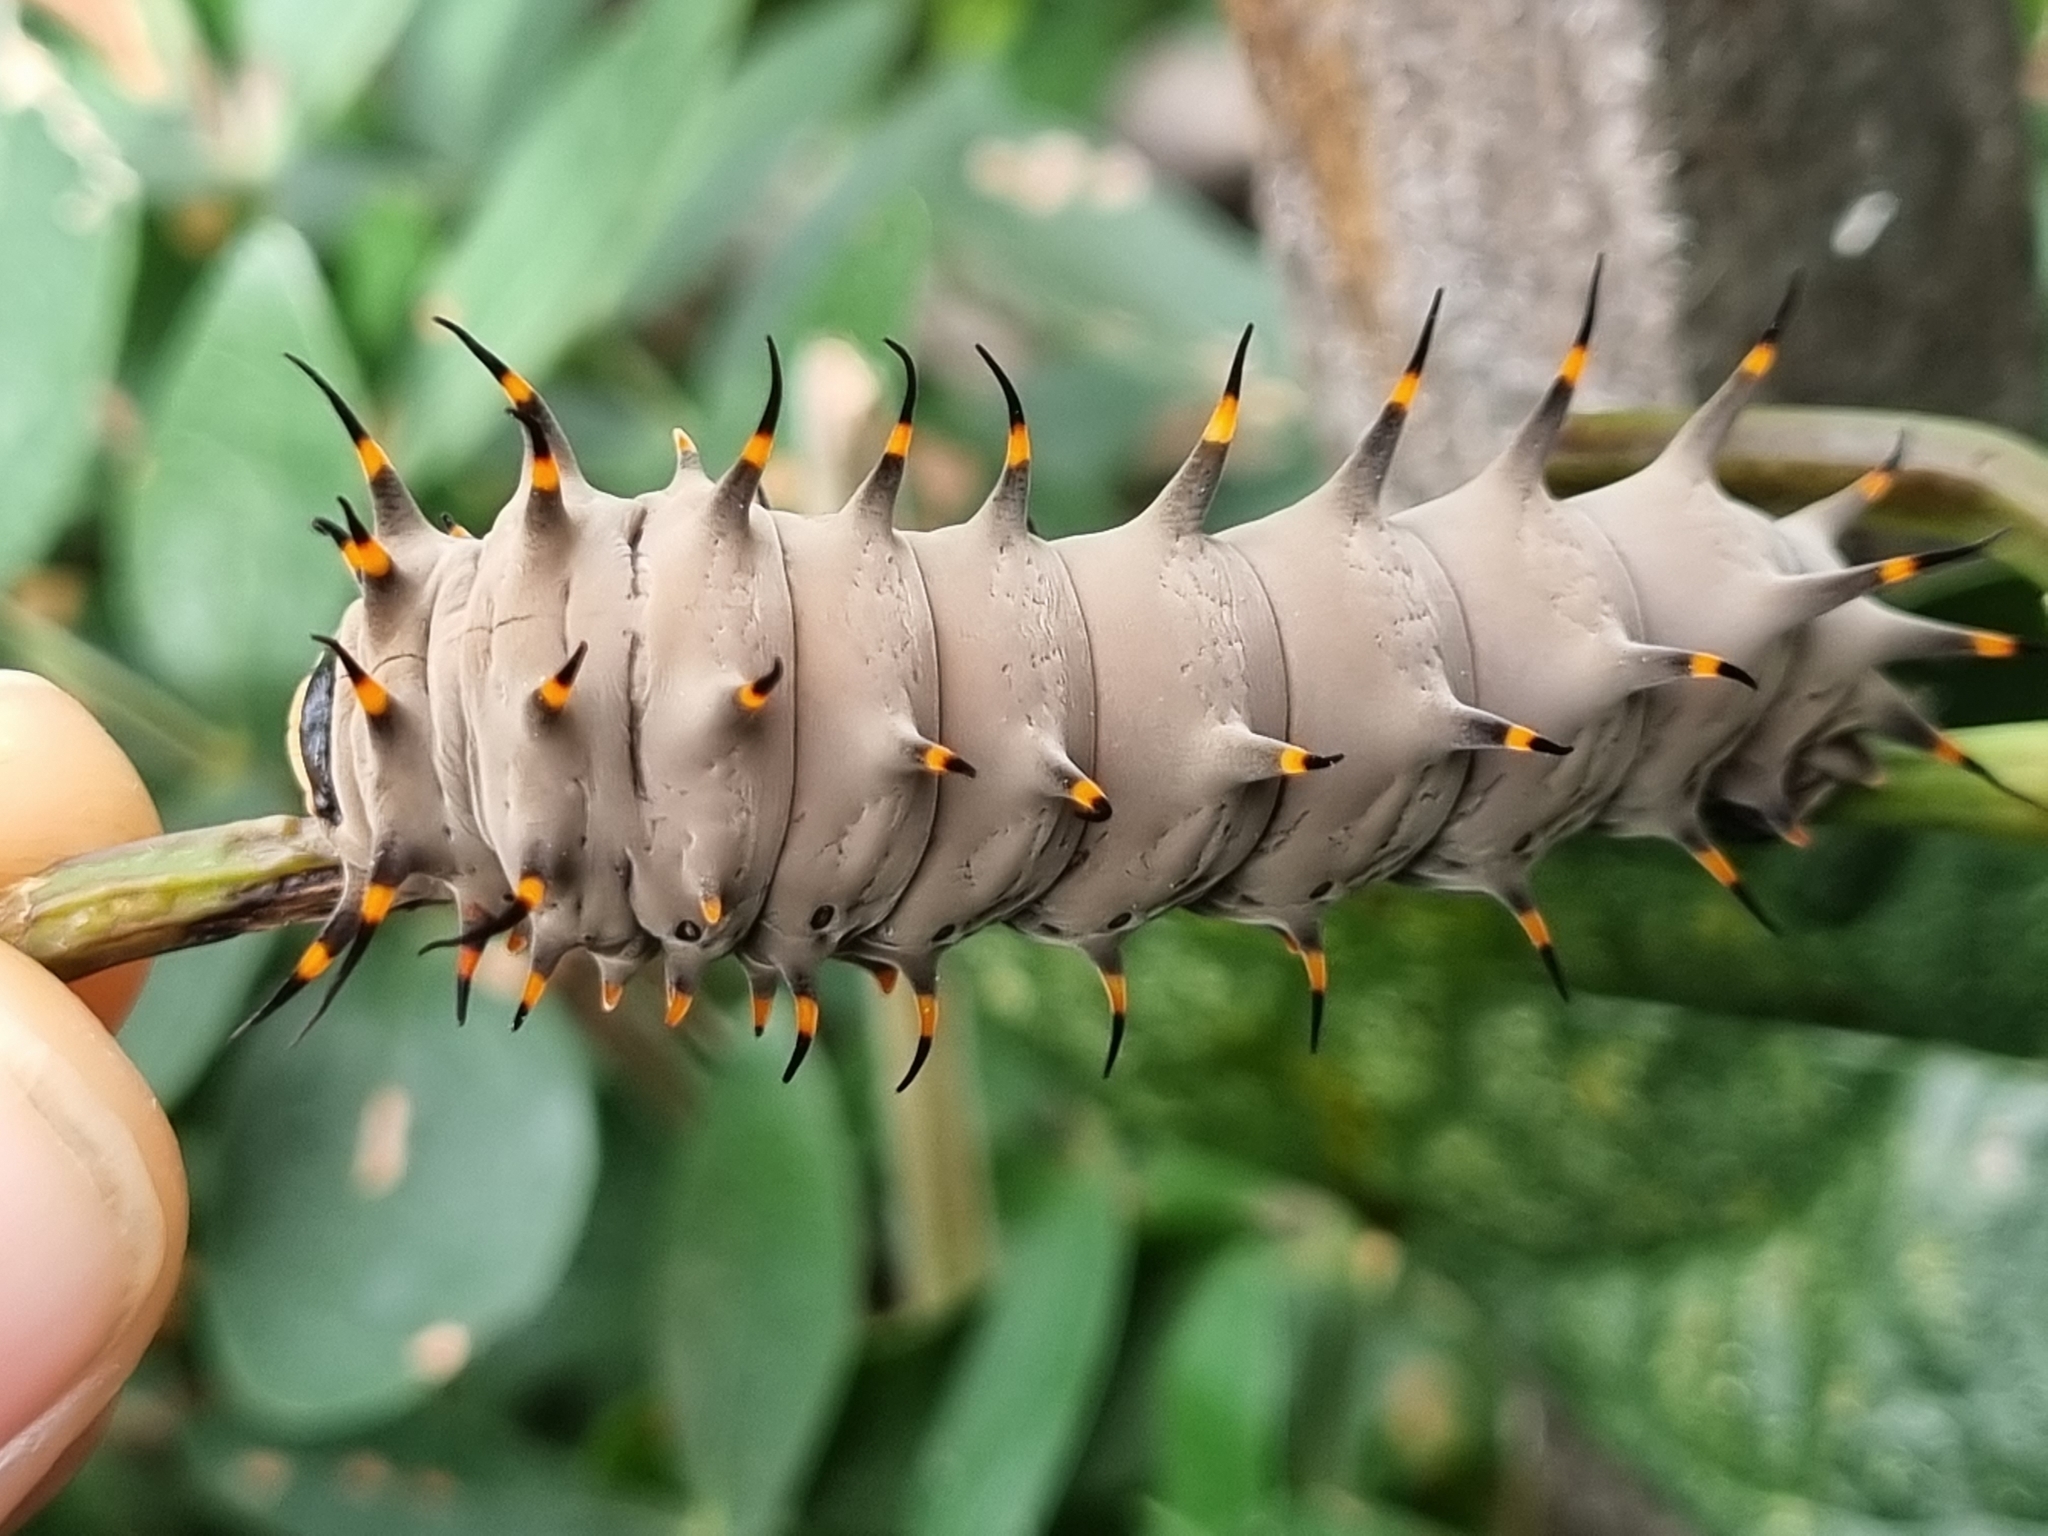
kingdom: Animalia
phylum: Arthropoda
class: Insecta
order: Lepidoptera
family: Papilionidae
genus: Ornithoptera
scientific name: Ornithoptera euphorion
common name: Cairns birdwing
